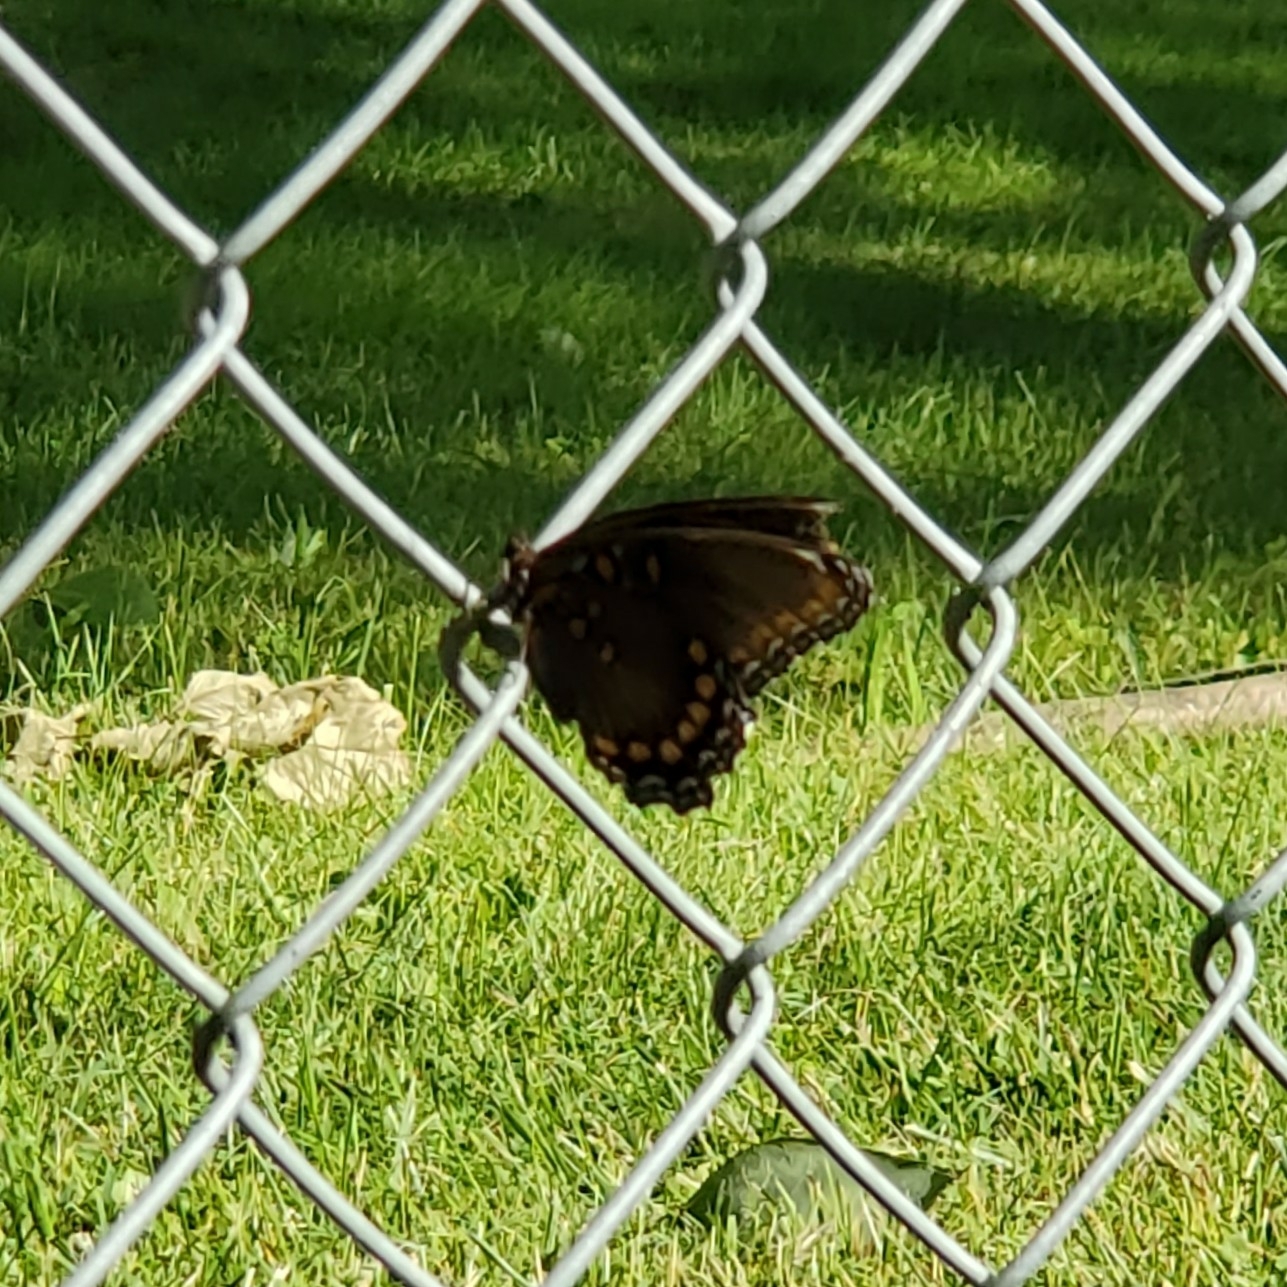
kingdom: Animalia
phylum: Arthropoda
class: Insecta
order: Lepidoptera
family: Nymphalidae
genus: Limenitis
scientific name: Limenitis astyanax
